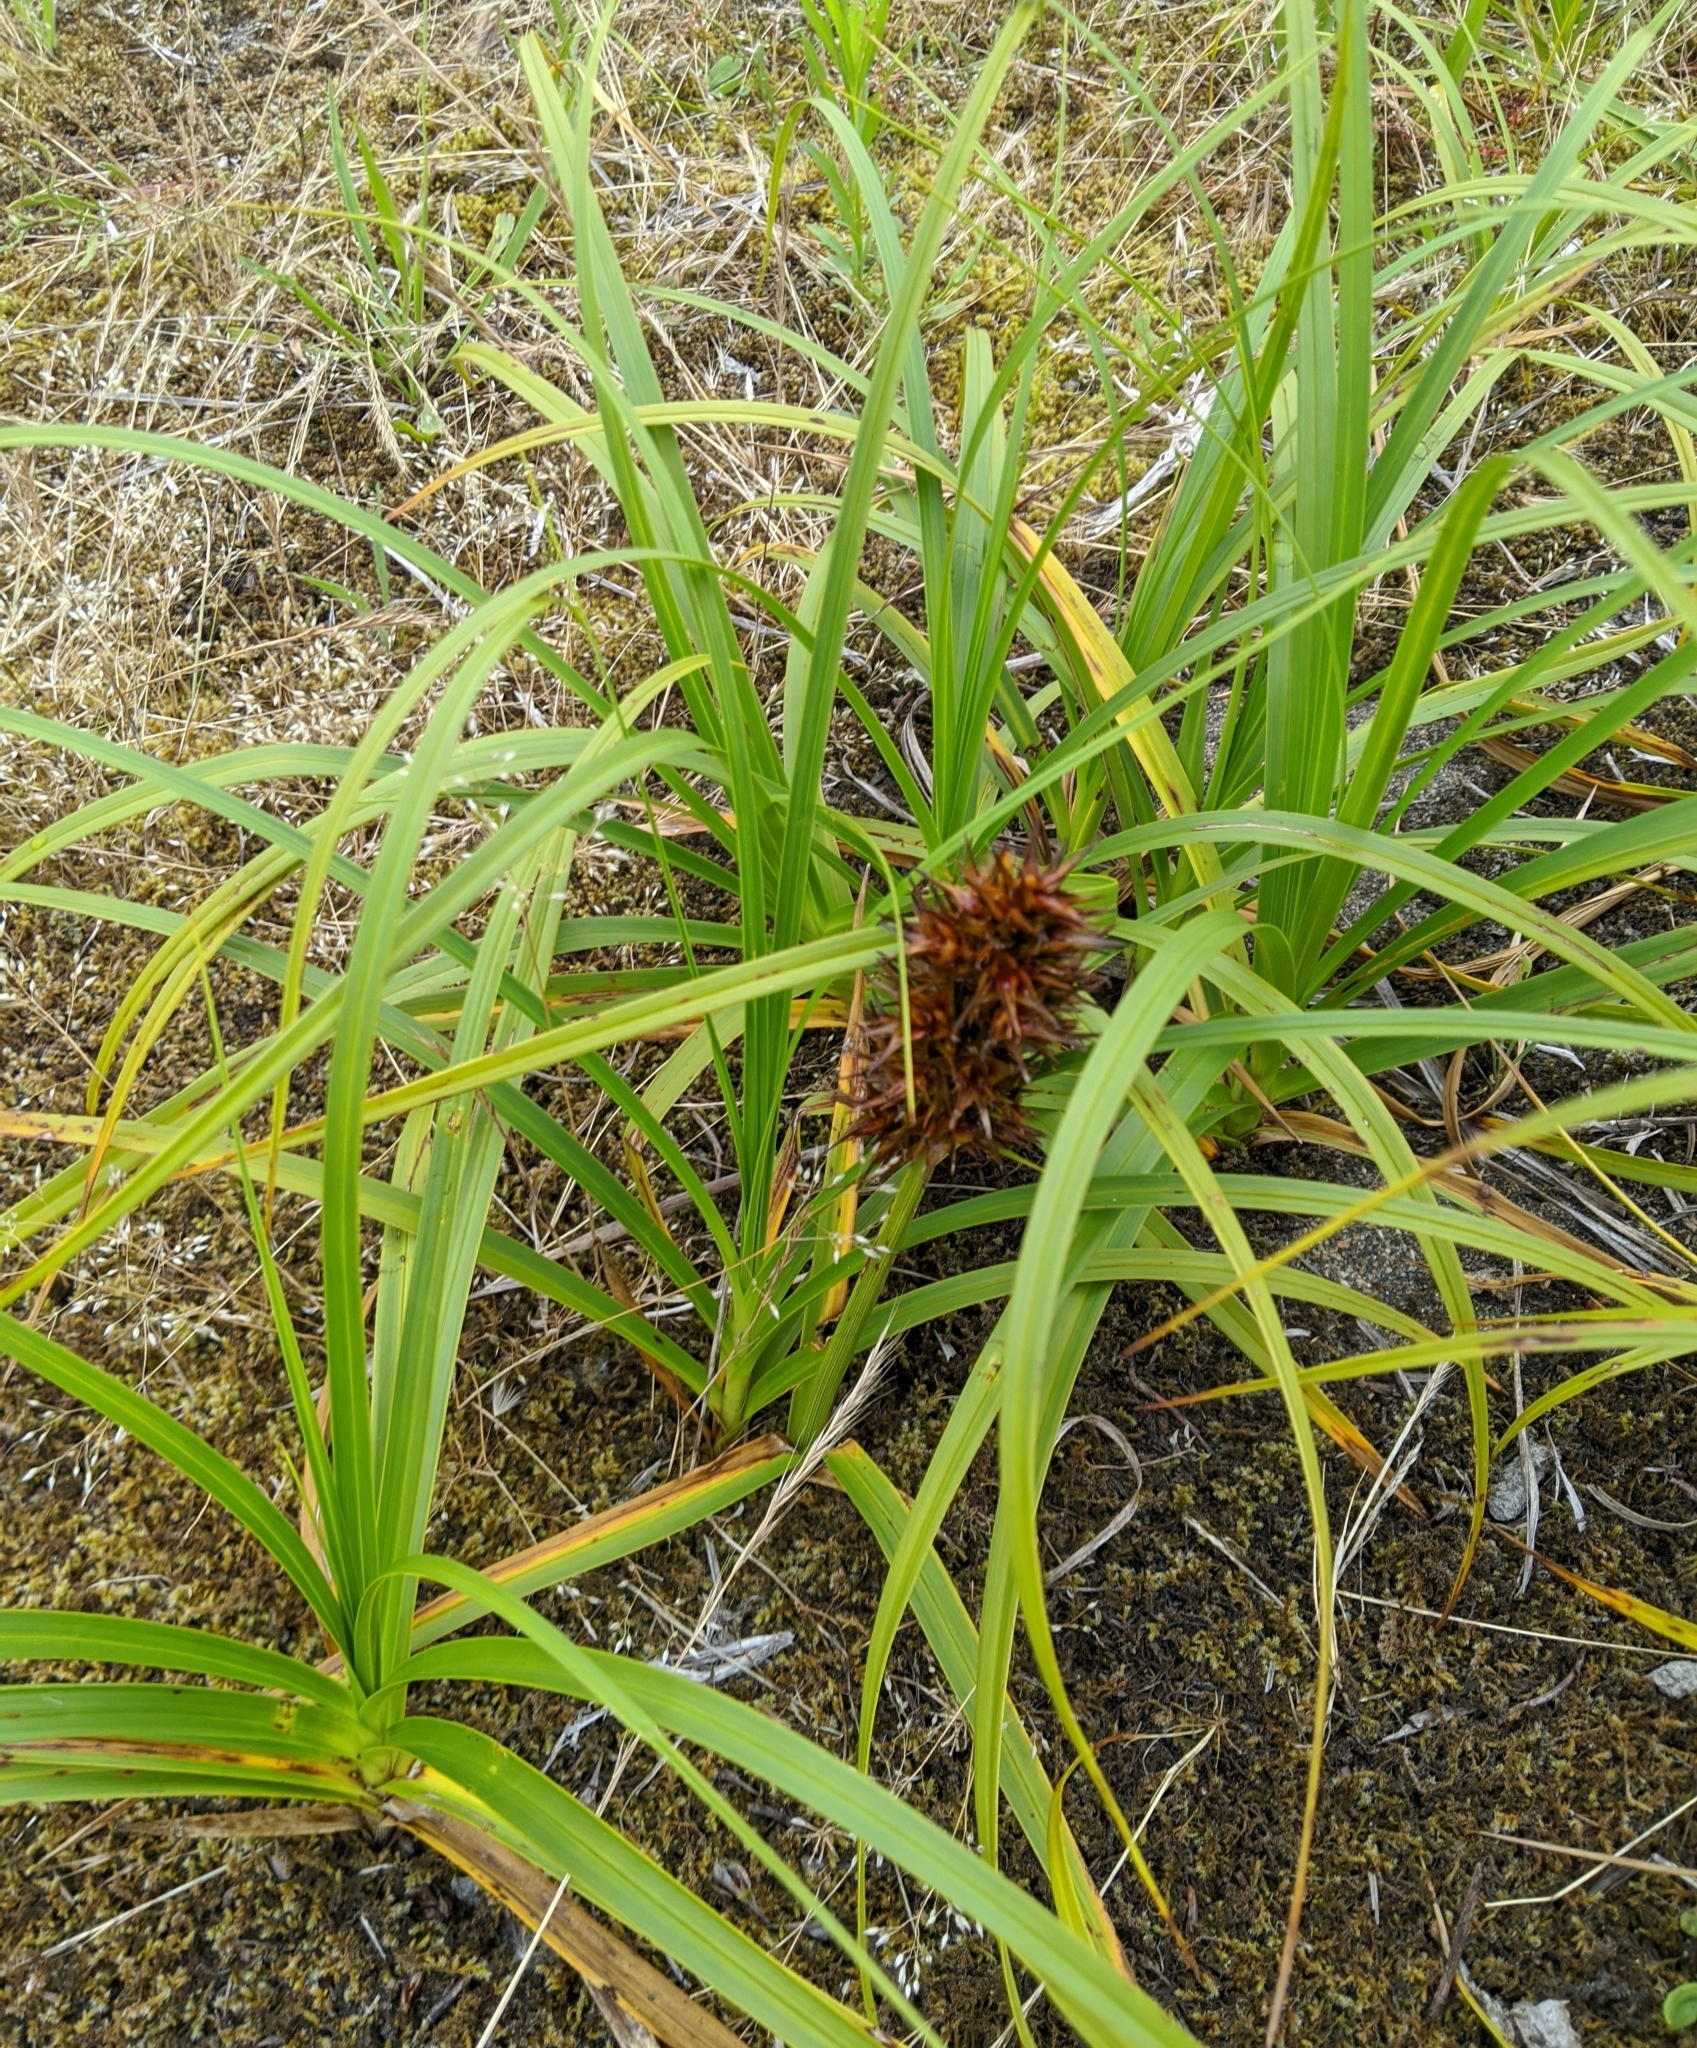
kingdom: Plantae
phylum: Tracheophyta
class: Liliopsida
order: Poales
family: Cyperaceae
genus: Carex
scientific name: Carex macrocephala
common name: Large-head sedge
